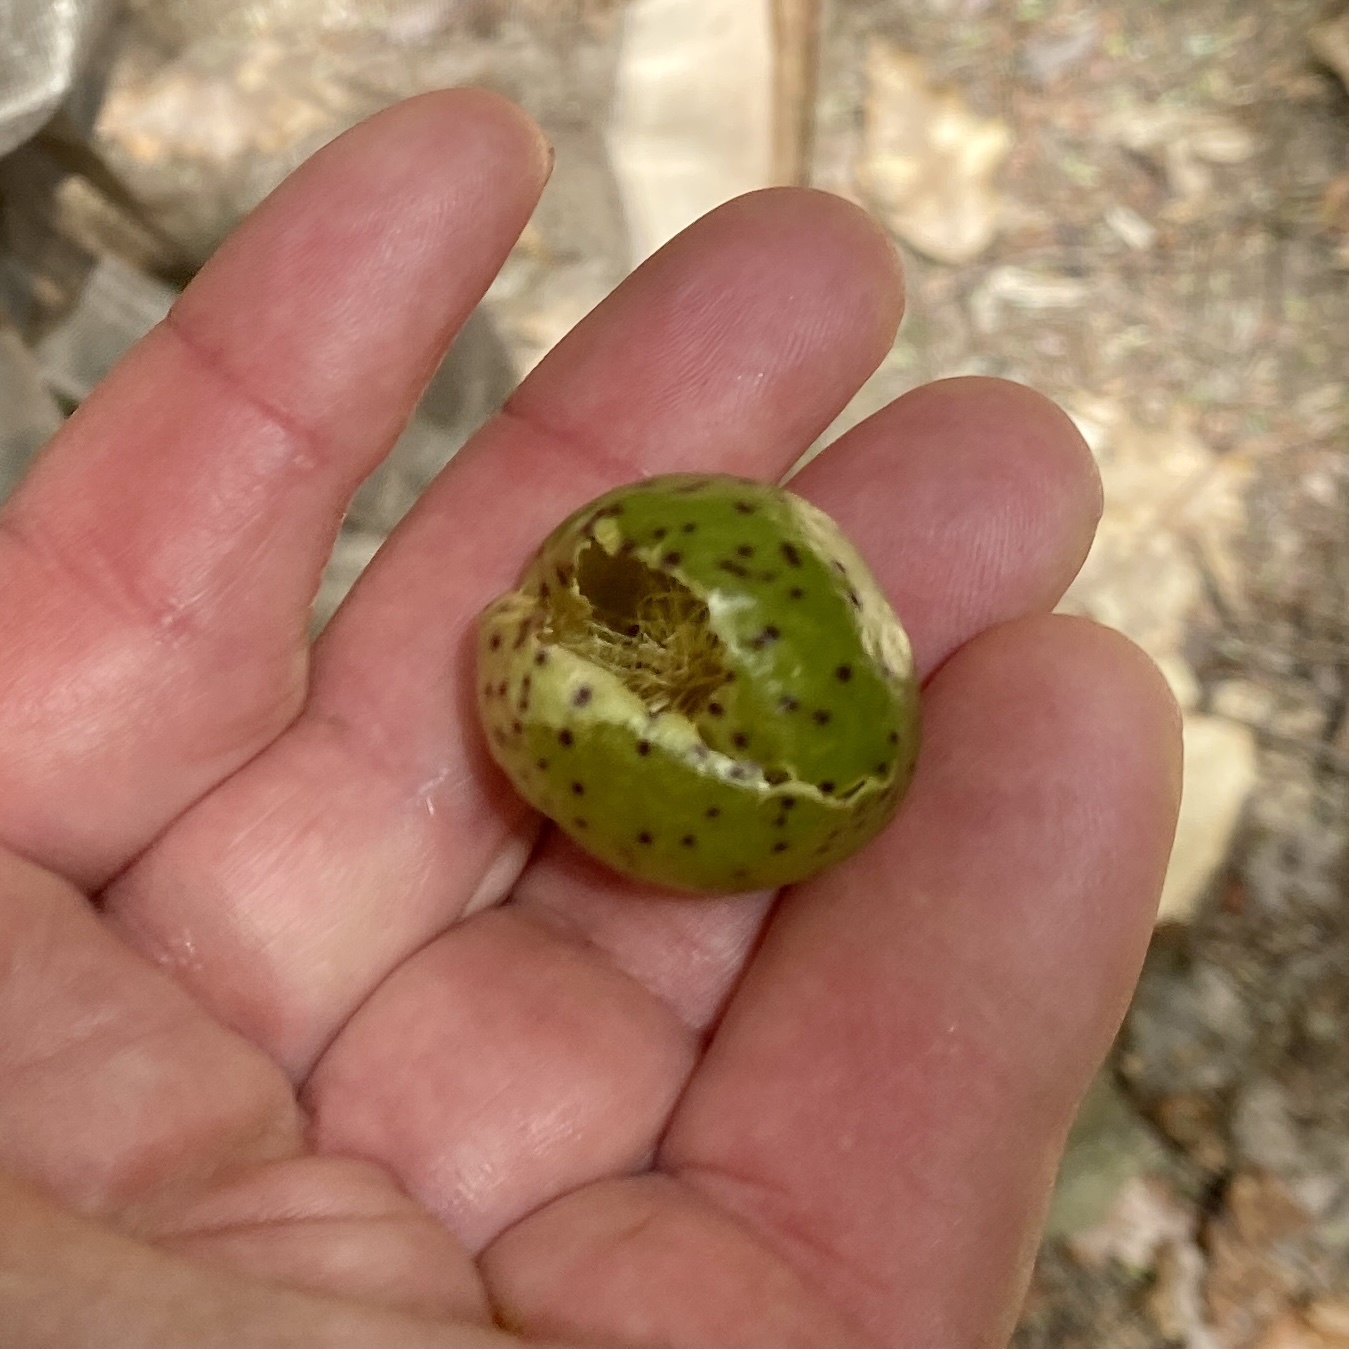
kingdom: Animalia
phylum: Arthropoda
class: Insecta
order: Hymenoptera
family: Cynipidae
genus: Amphibolips
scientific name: Amphibolips
